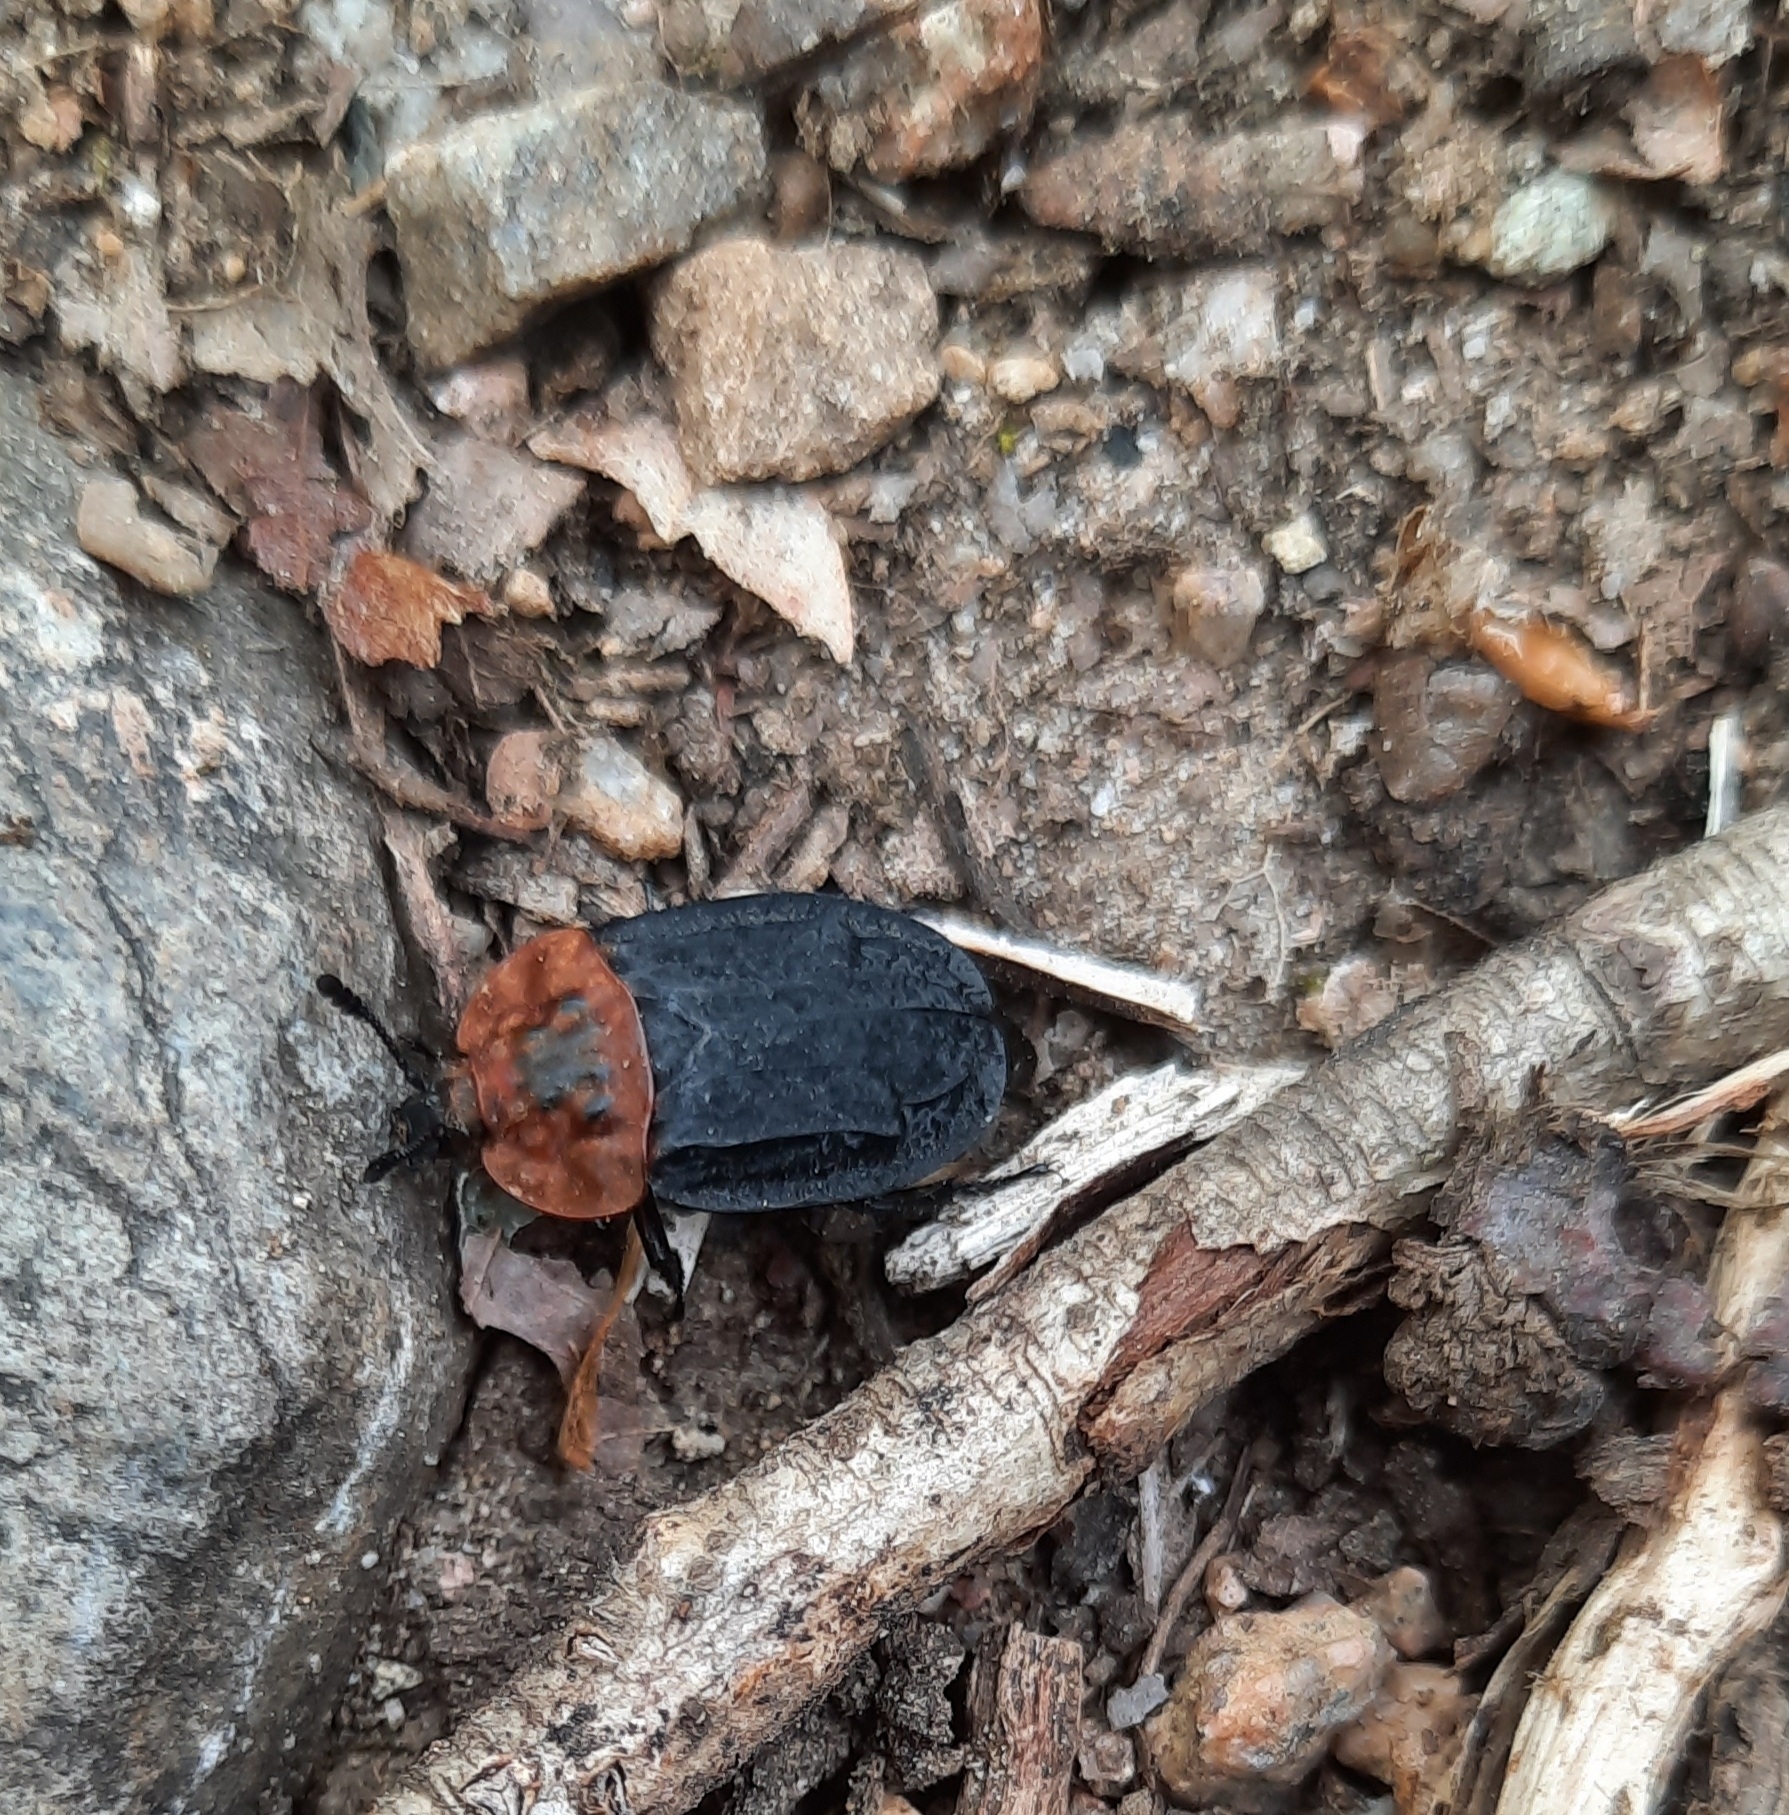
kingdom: Animalia
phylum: Arthropoda
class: Insecta
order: Coleoptera
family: Staphylinidae
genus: Oiceoptoma
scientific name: Oiceoptoma thoracicum
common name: Red-breasted carrion beetle
